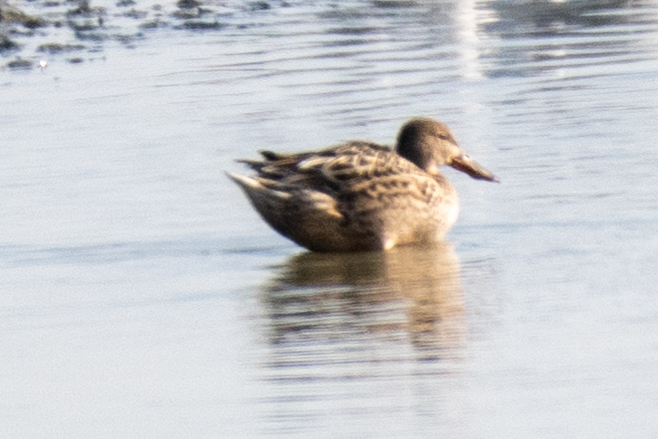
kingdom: Animalia
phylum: Chordata
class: Aves
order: Anseriformes
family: Anatidae
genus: Spatula
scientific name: Spatula clypeata
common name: Northern shoveler
